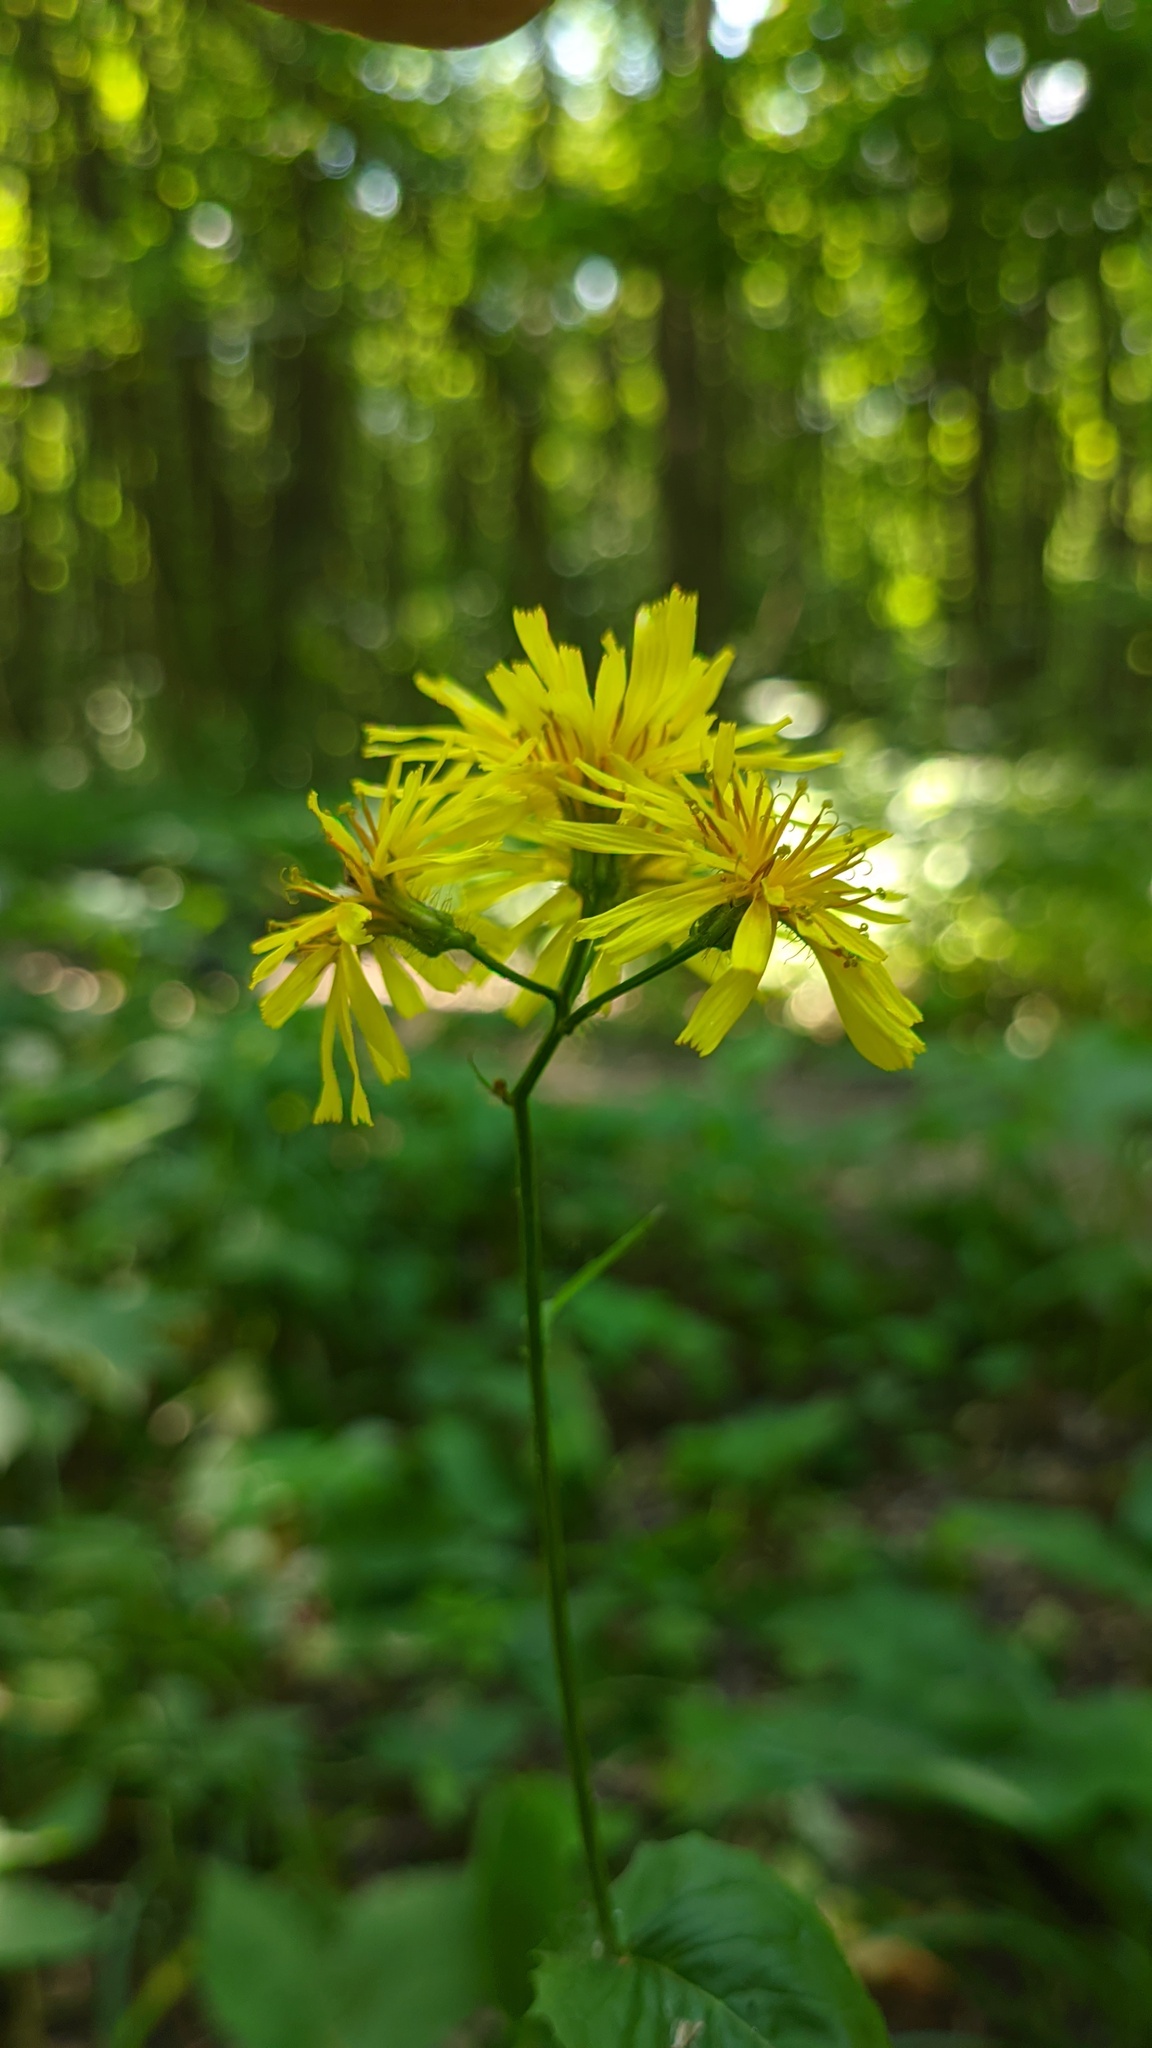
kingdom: Plantae
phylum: Tracheophyta
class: Magnoliopsida
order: Asterales
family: Asteraceae
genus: Crepis
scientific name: Crepis paludosa
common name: Marsh hawk's-beard
